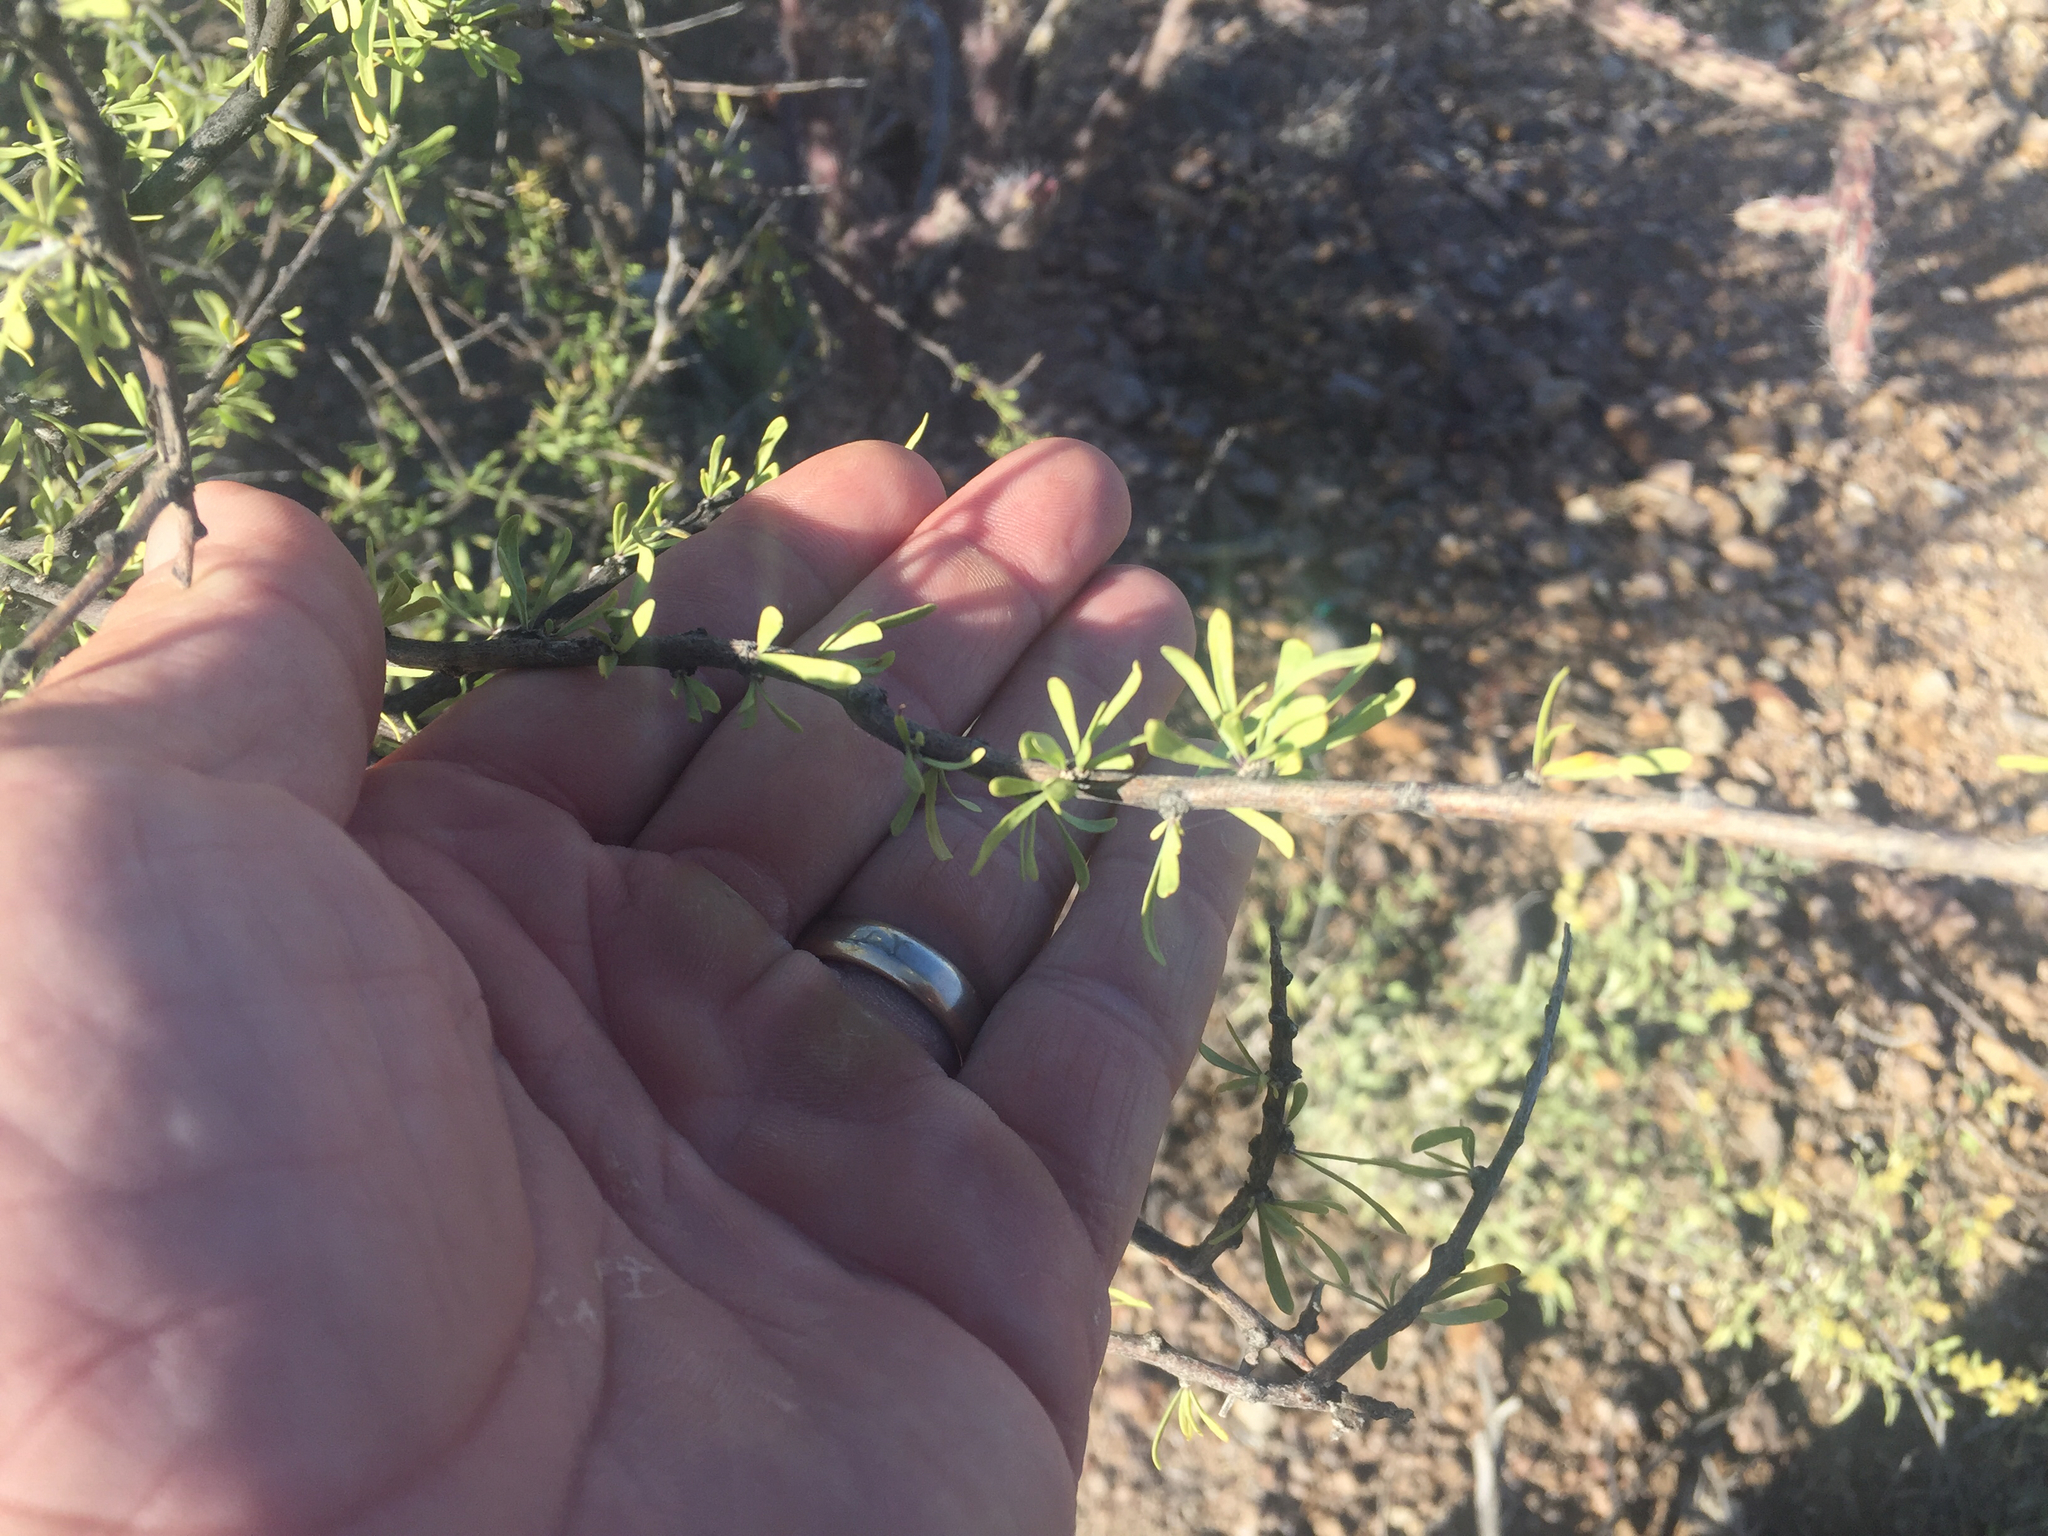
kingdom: Plantae
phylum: Tracheophyta
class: Magnoliopsida
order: Solanales
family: Solanaceae
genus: Lycium
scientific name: Lycium berlandieri
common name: Berlandier wolfberry
